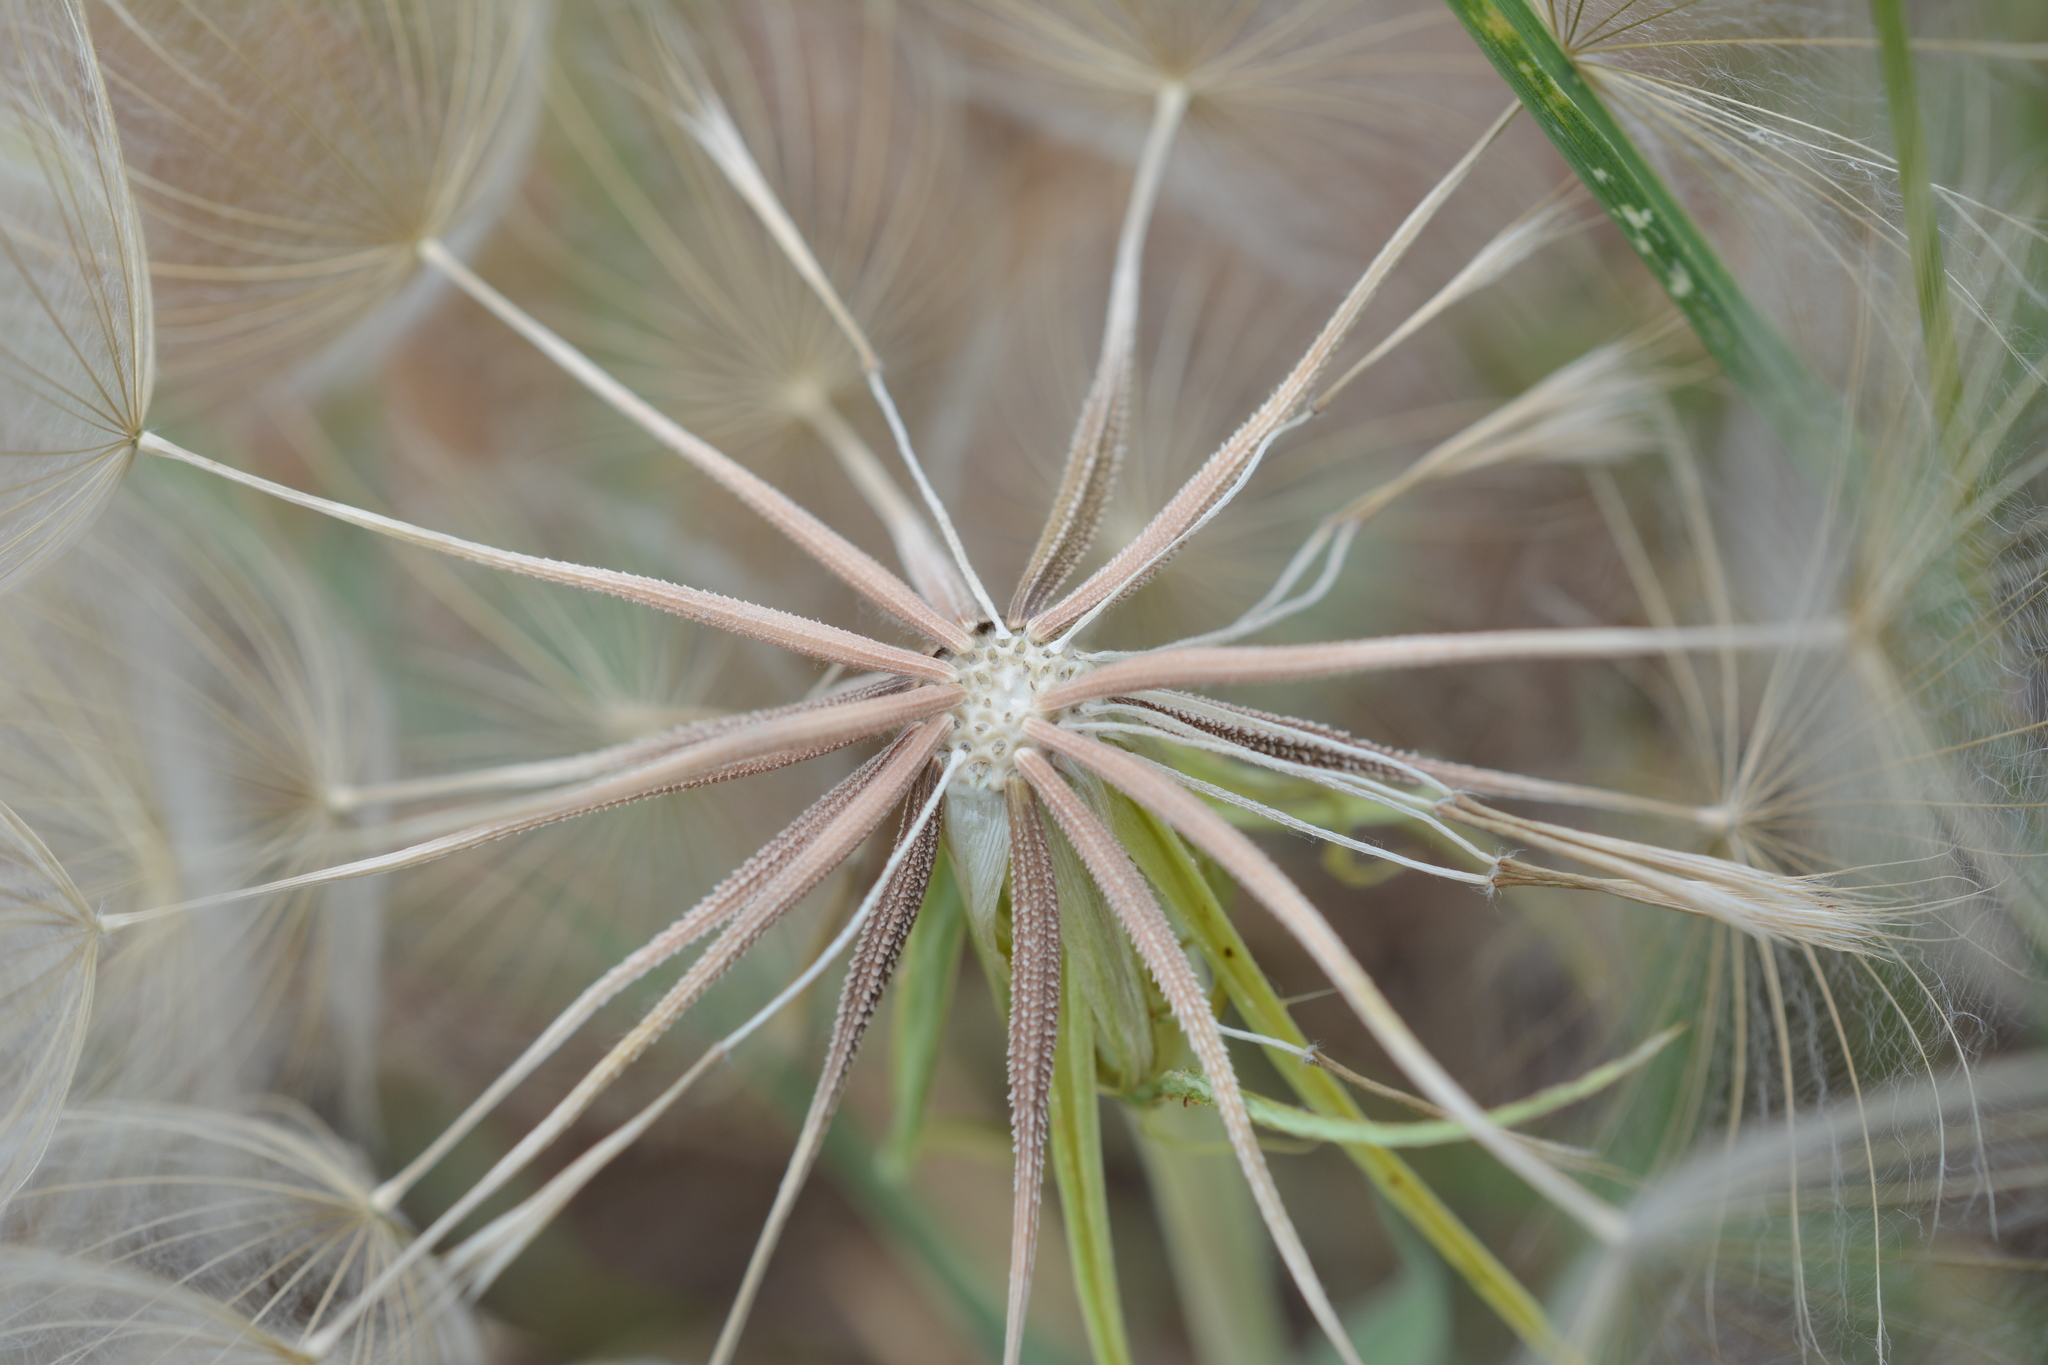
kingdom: Plantae
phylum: Tracheophyta
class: Magnoliopsida
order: Asterales
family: Asteraceae
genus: Tragopogon
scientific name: Tragopogon dubius
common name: Yellow salsify
